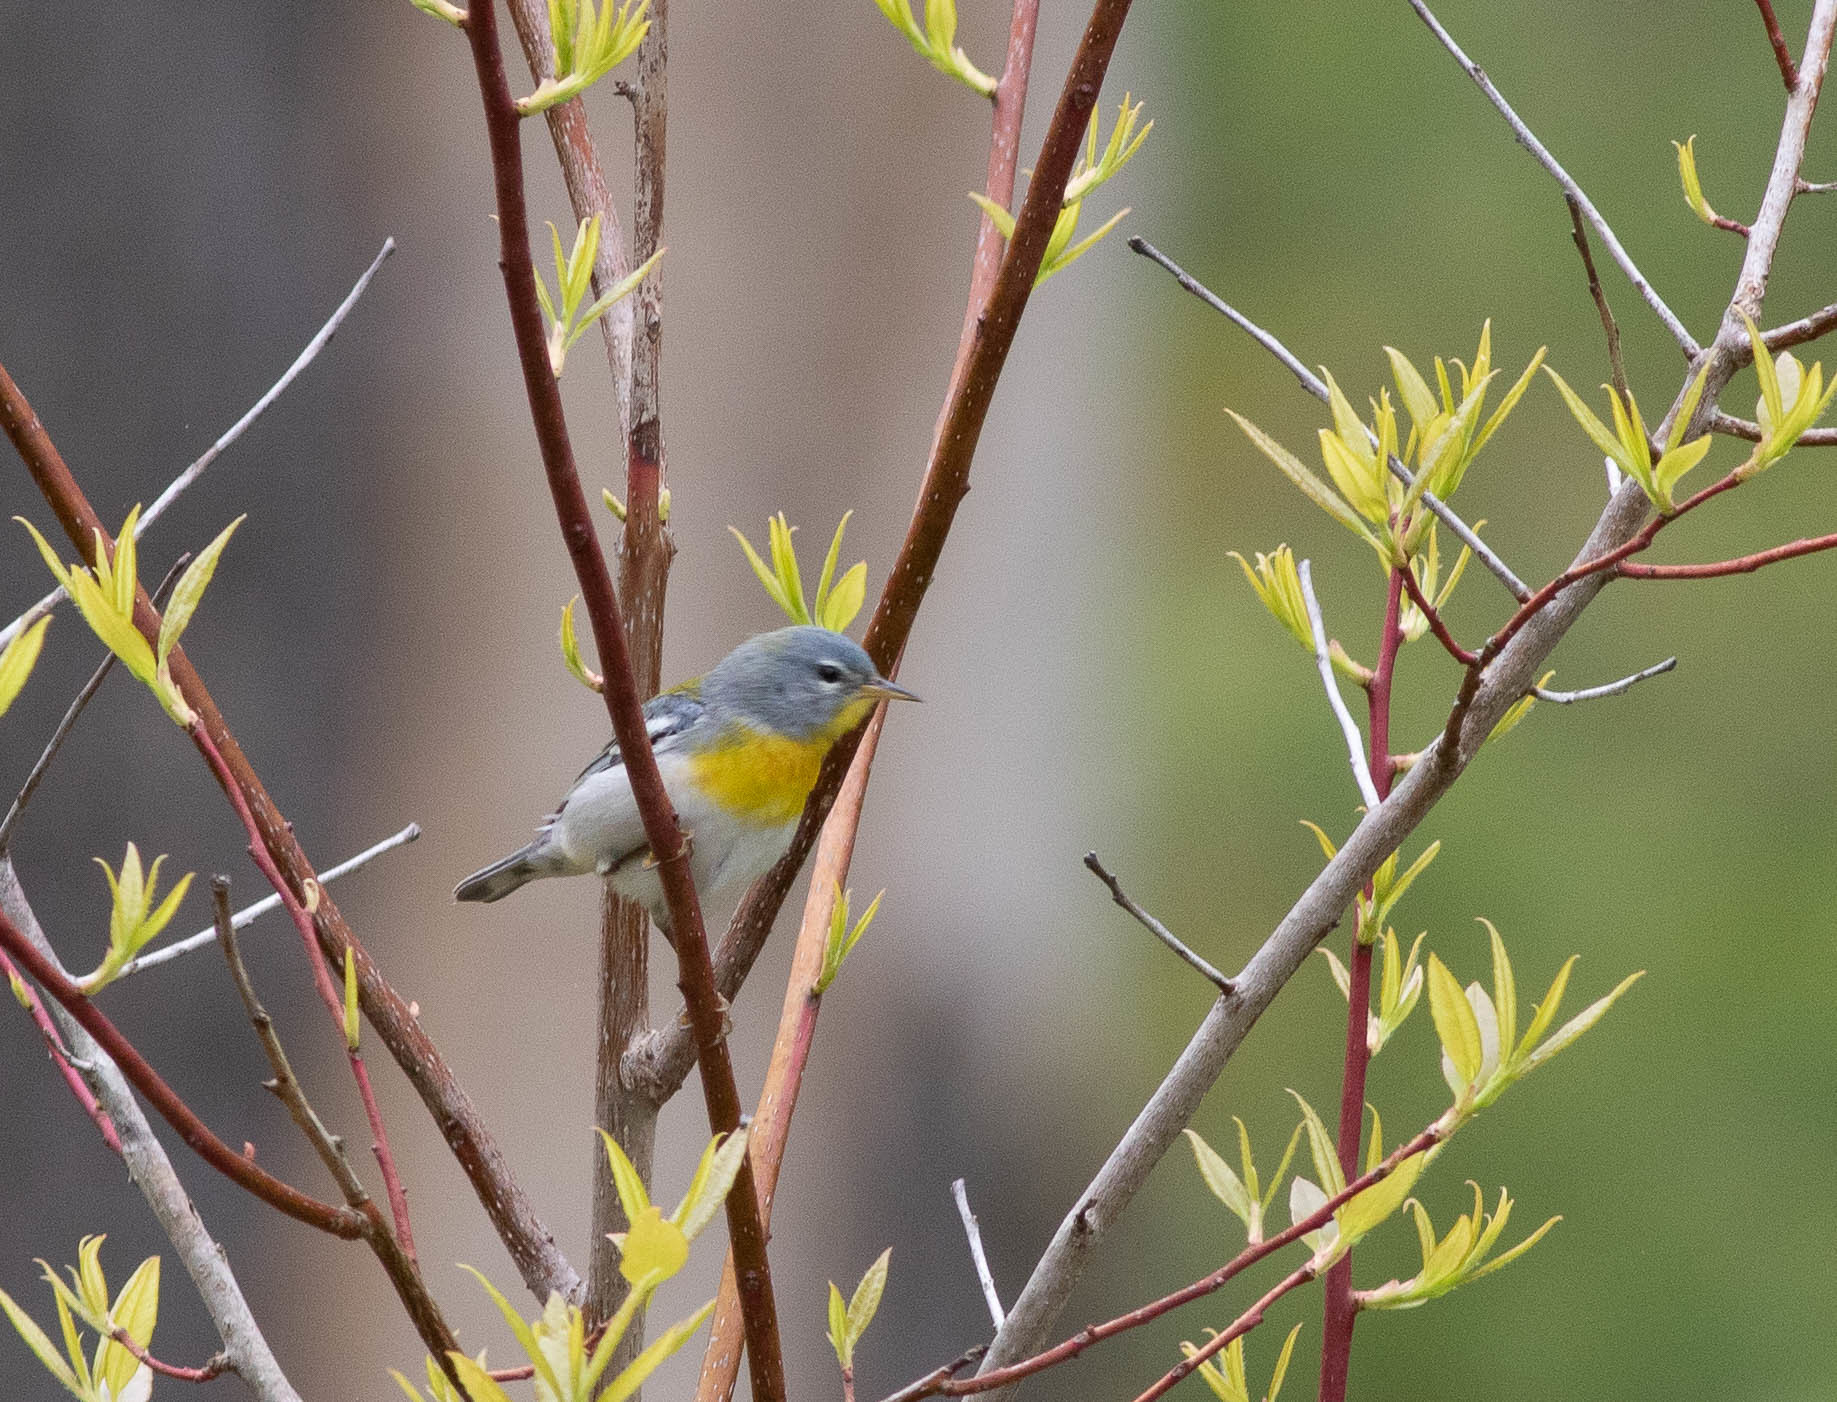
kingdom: Animalia
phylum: Chordata
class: Aves
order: Passeriformes
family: Parulidae
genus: Setophaga
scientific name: Setophaga americana
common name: Northern parula
